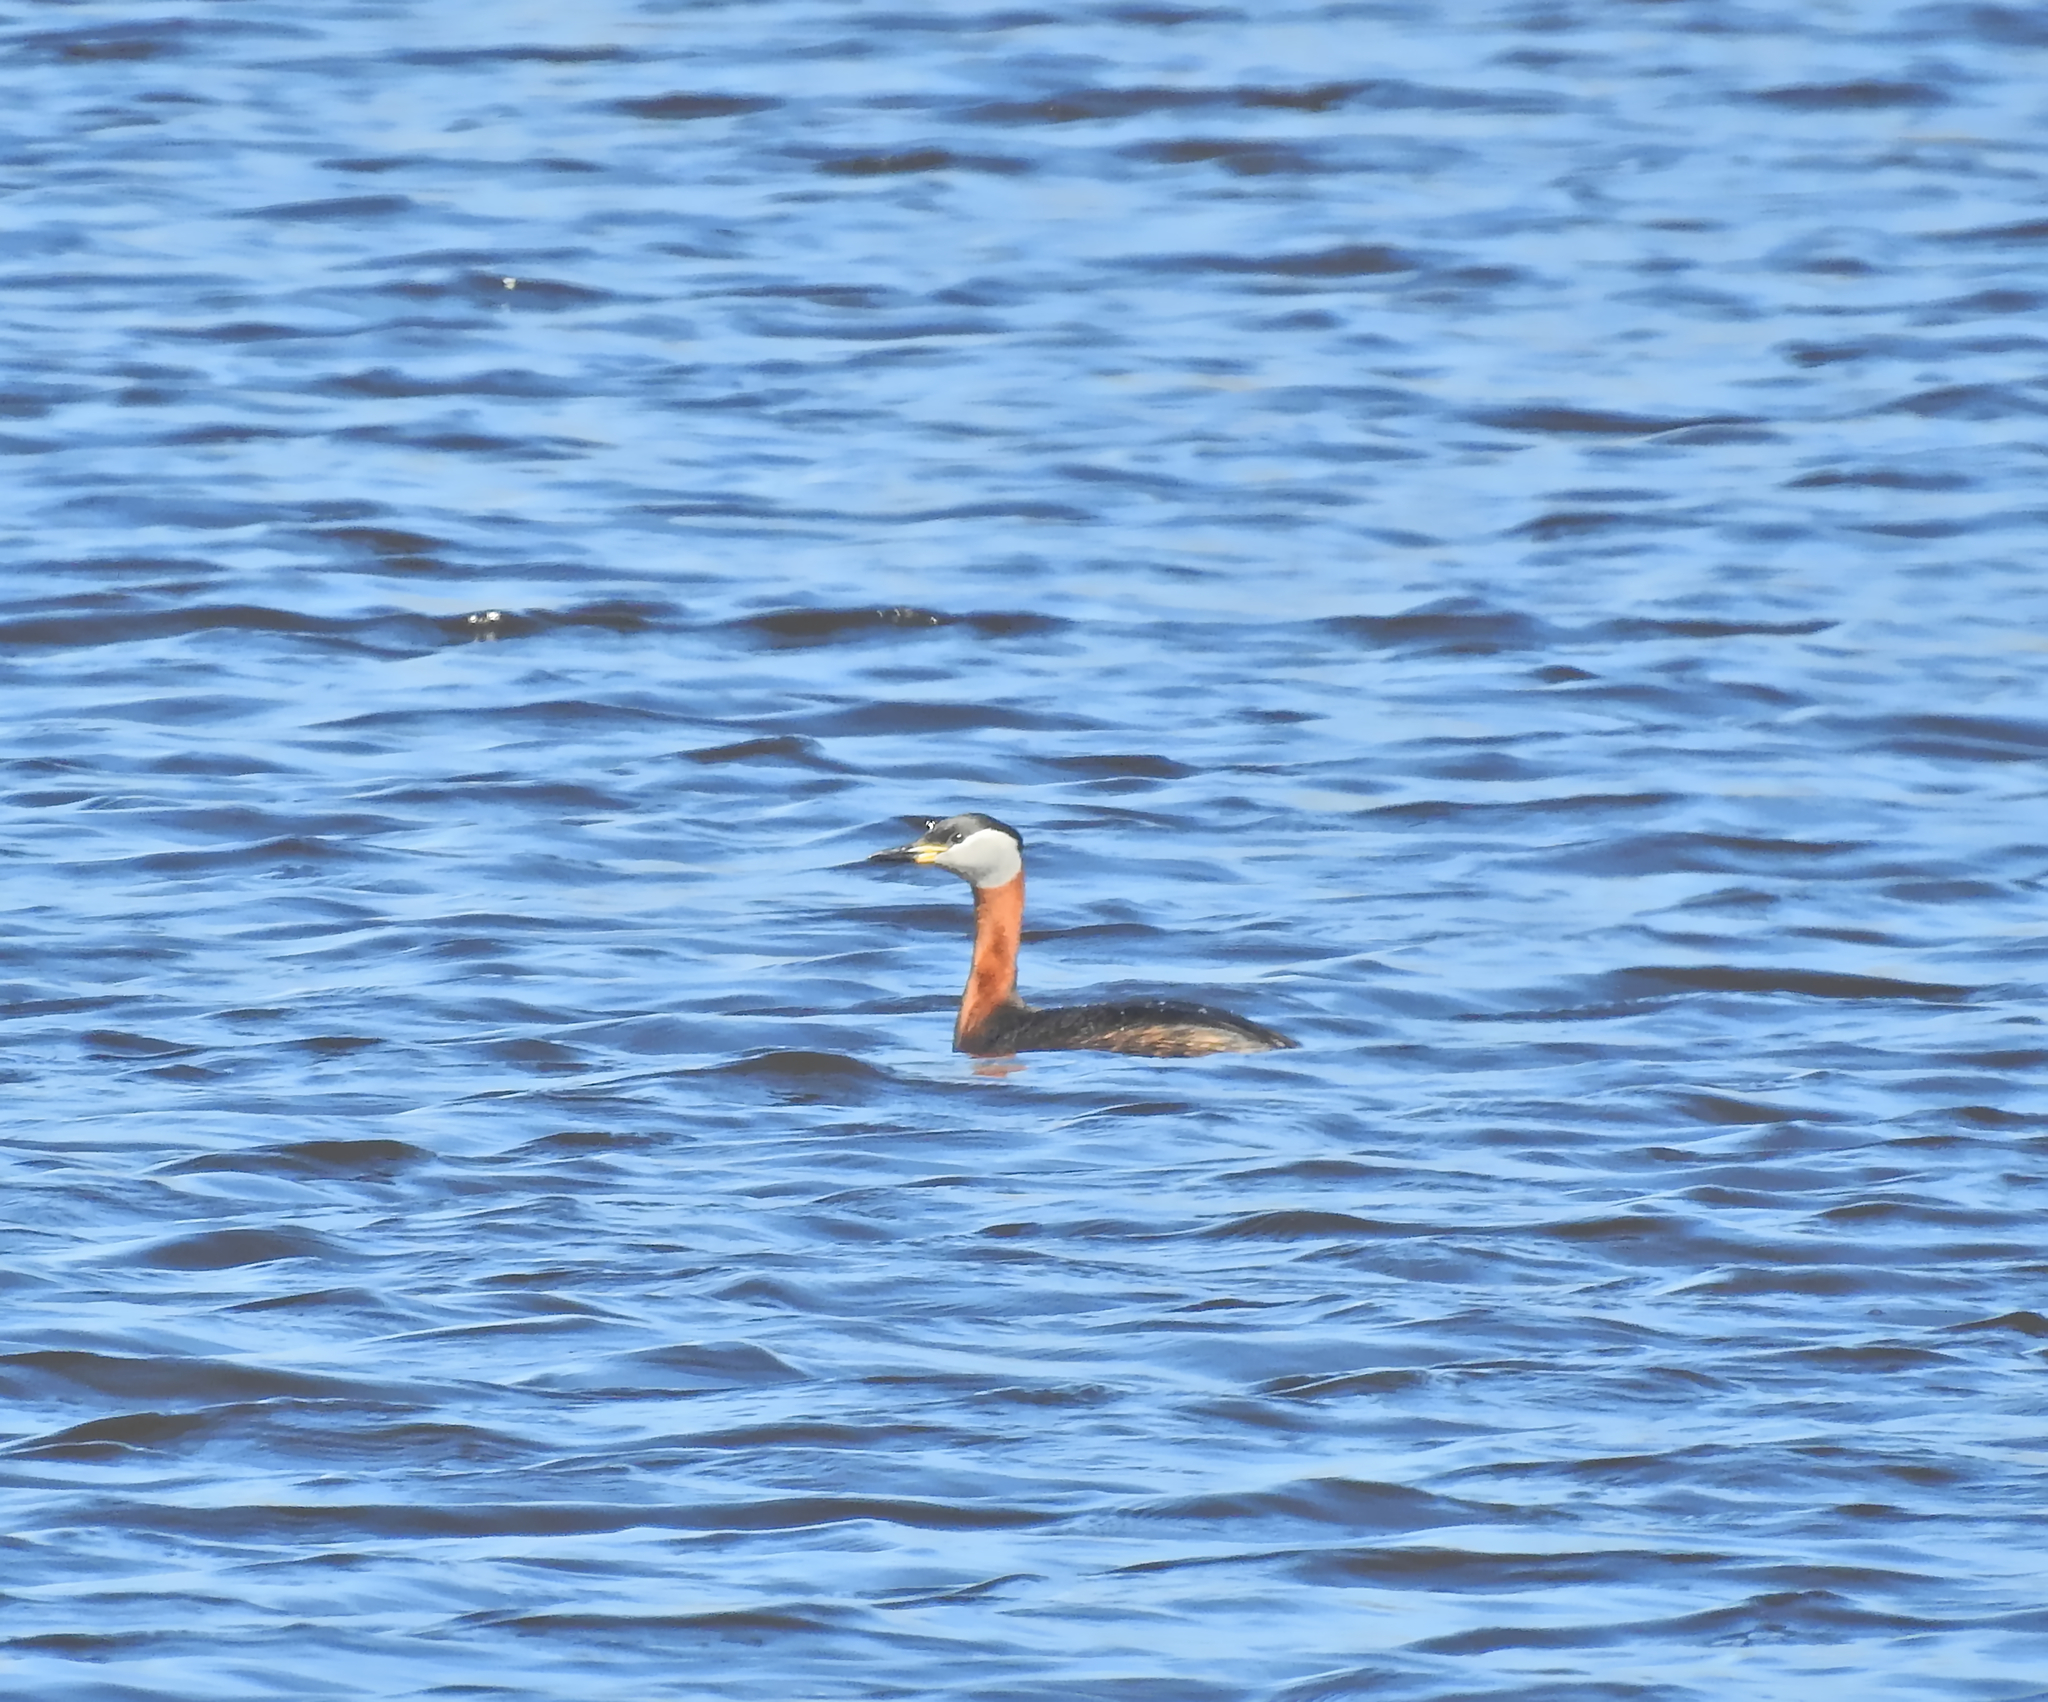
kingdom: Animalia
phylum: Chordata
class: Aves
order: Podicipediformes
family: Podicipedidae
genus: Podiceps
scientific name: Podiceps grisegena
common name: Red-necked grebe
